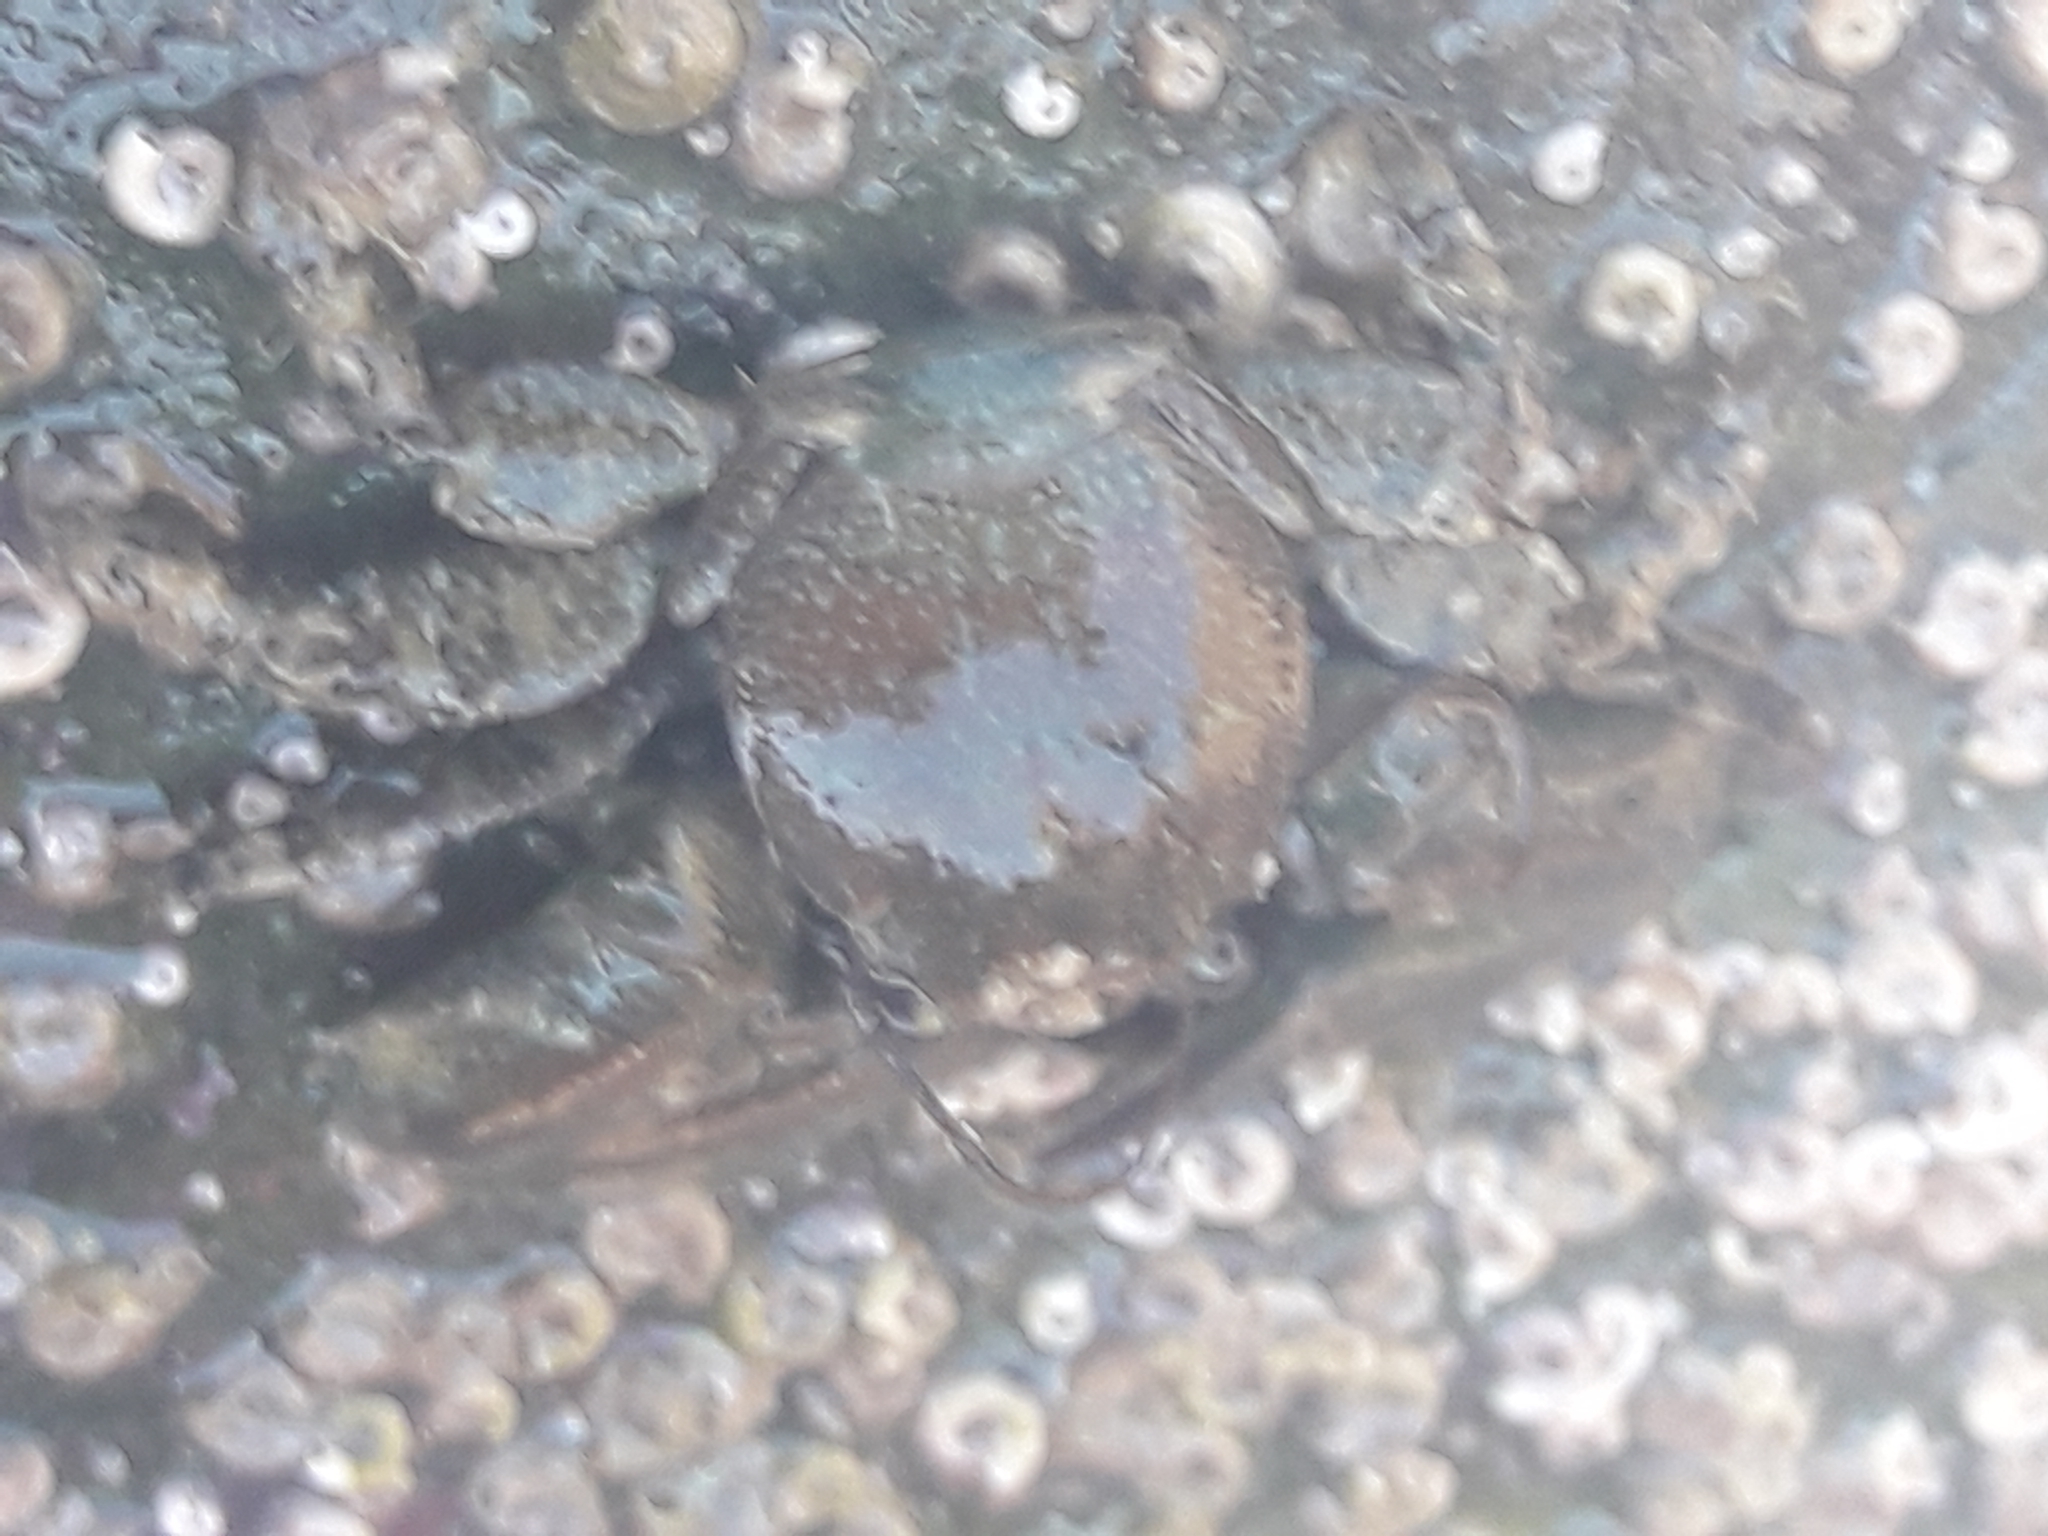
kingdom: Animalia
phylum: Arthropoda
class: Malacostraca
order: Decapoda
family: Porcellanidae
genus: Petrolisthes
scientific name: Petrolisthes elongatus
